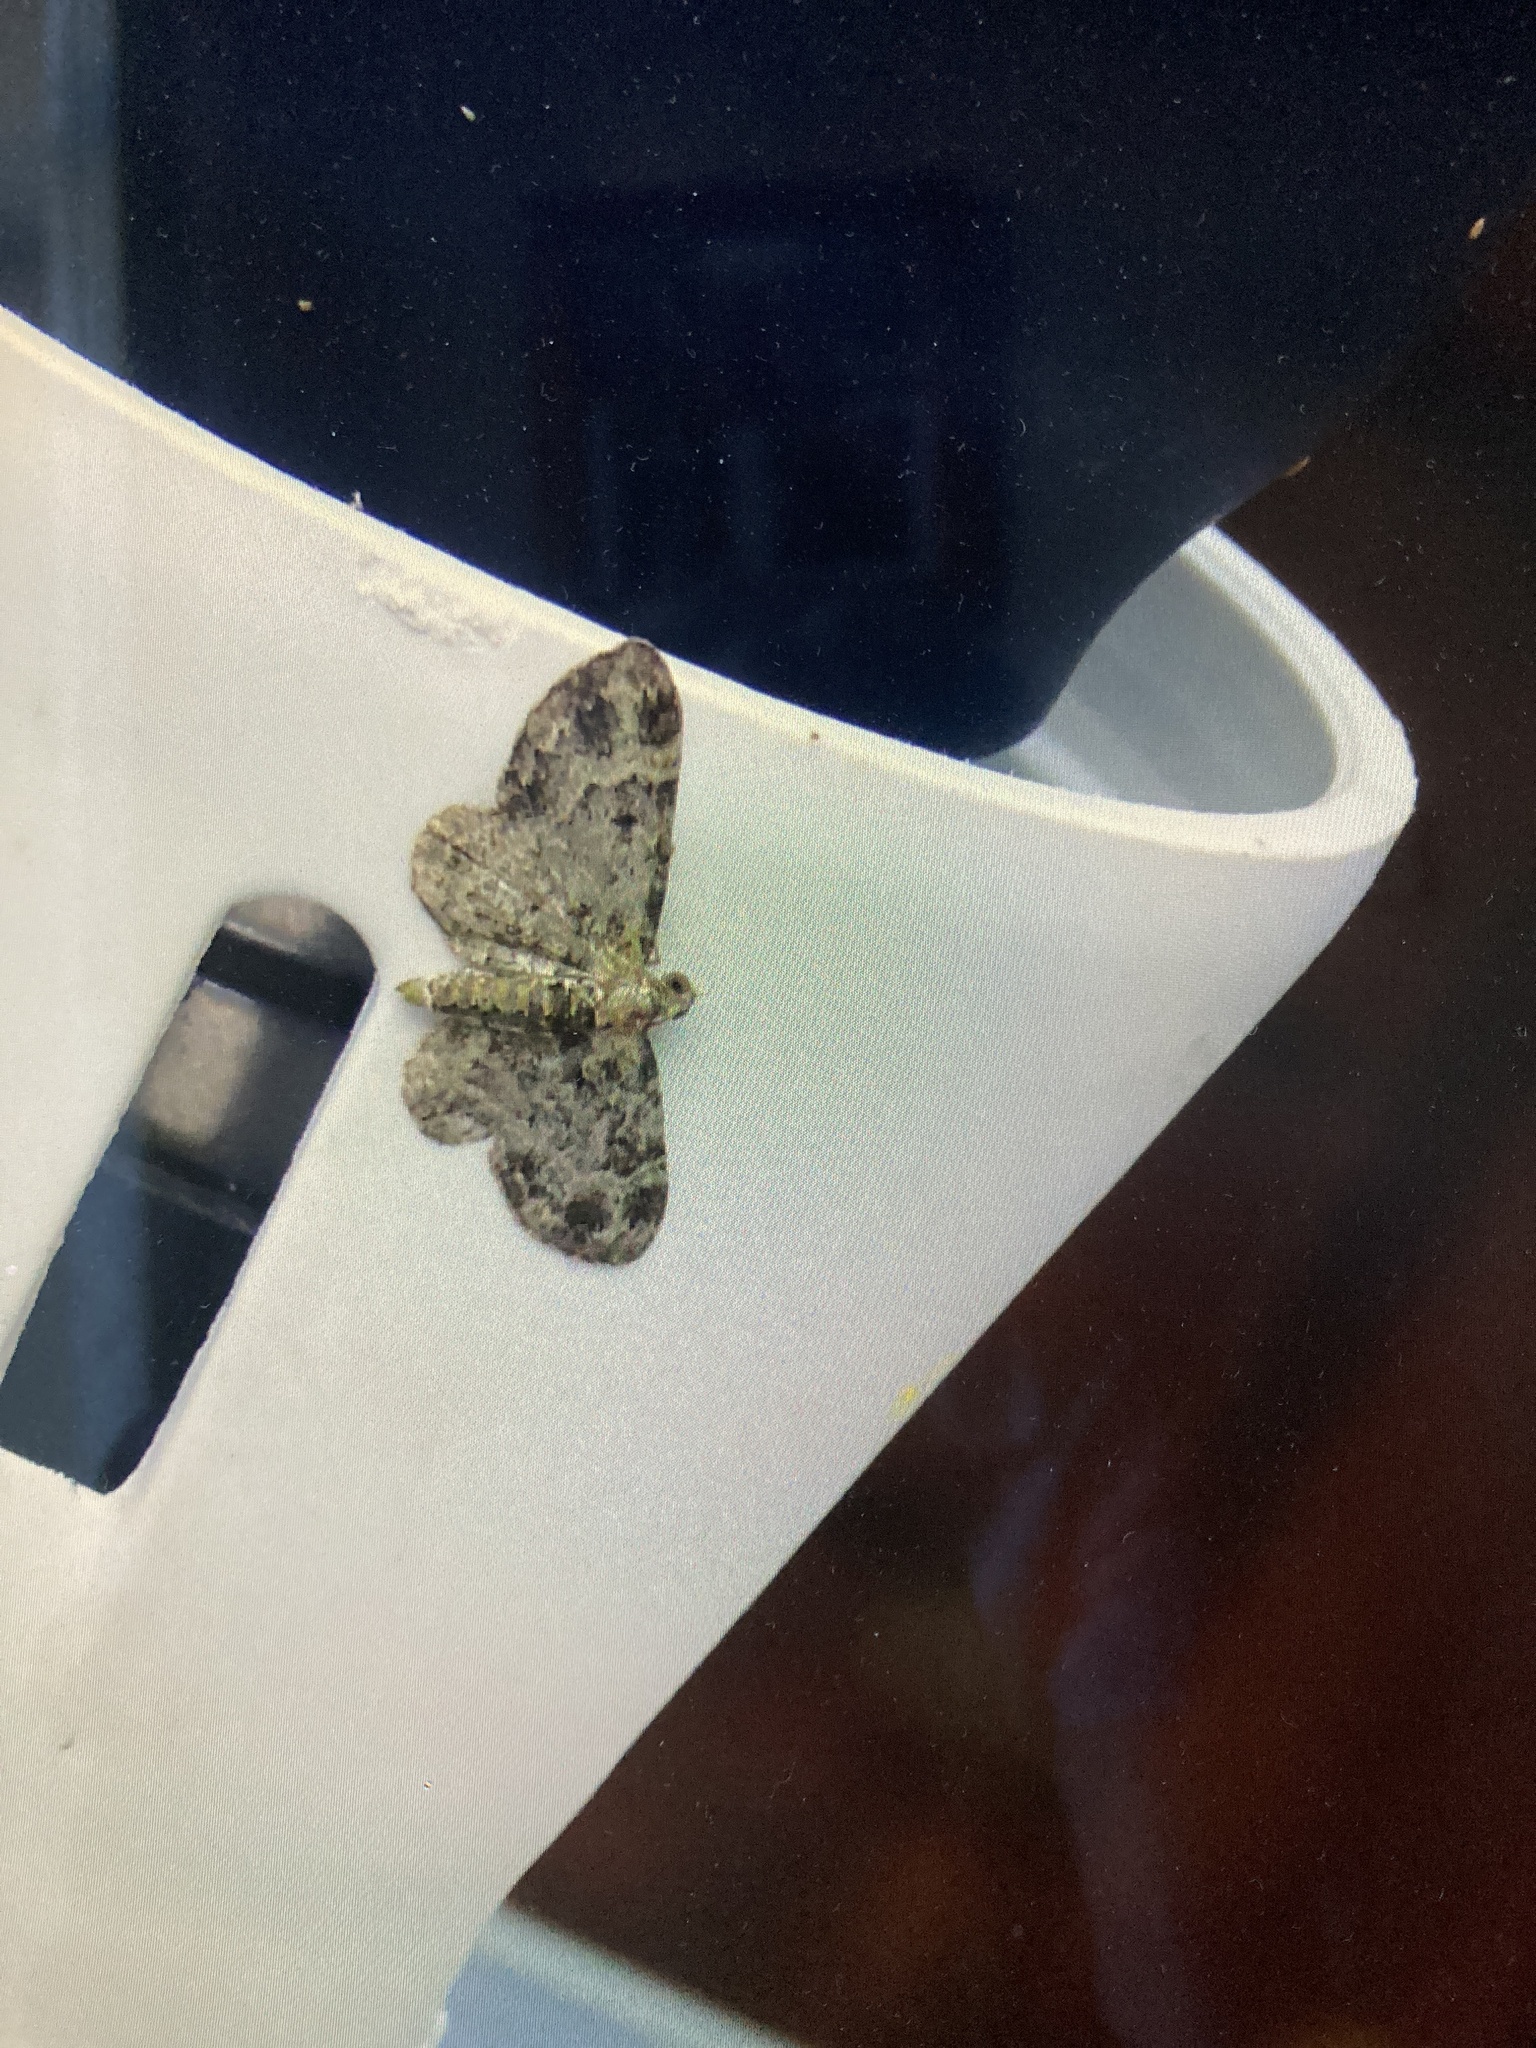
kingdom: Animalia
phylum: Arthropoda
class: Insecta
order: Lepidoptera
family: Geometridae
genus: Pasiphila
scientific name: Pasiphila rectangulata
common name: Green pug
